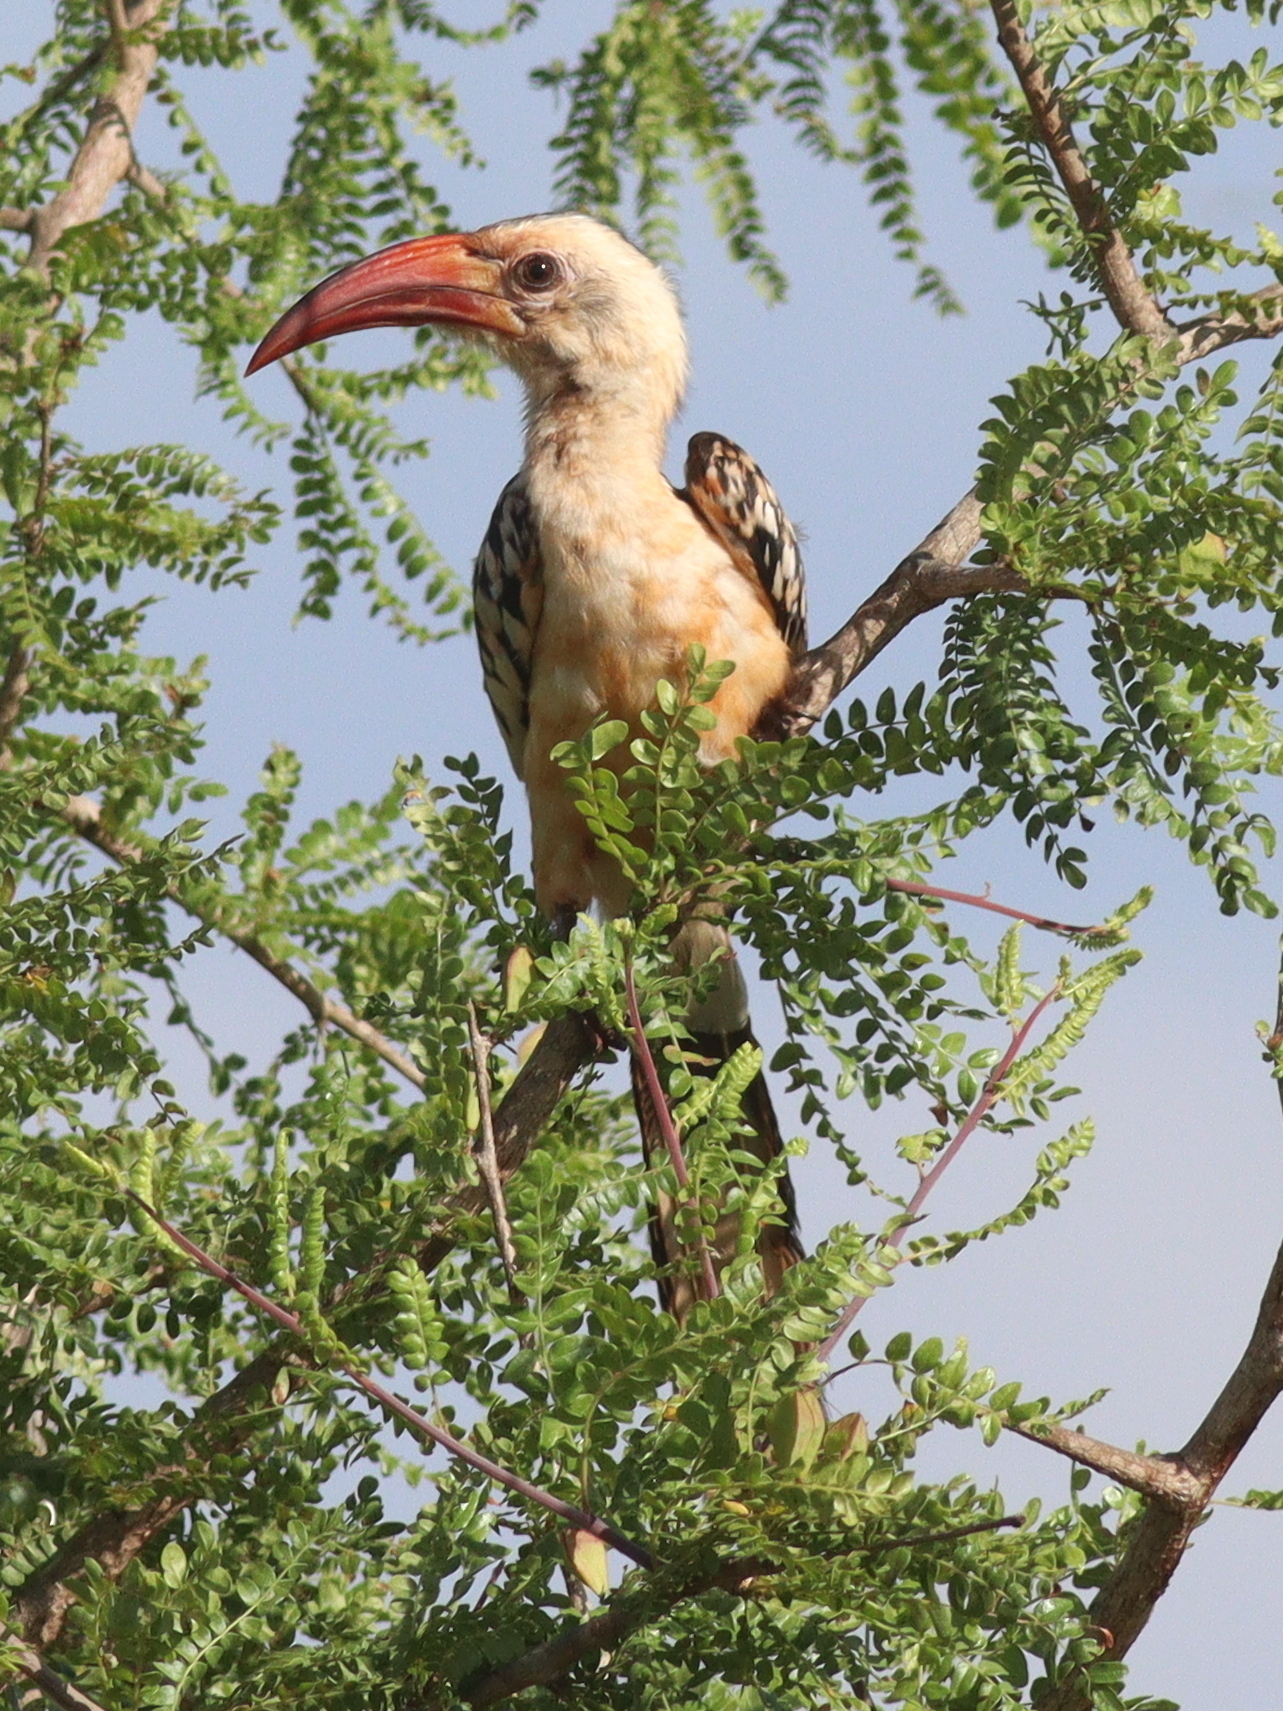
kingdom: Animalia
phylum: Chordata
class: Aves
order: Bucerotiformes
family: Bucerotidae
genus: Tockus
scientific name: Tockus erythrorhynchus
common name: Northern red-billed hornbill
